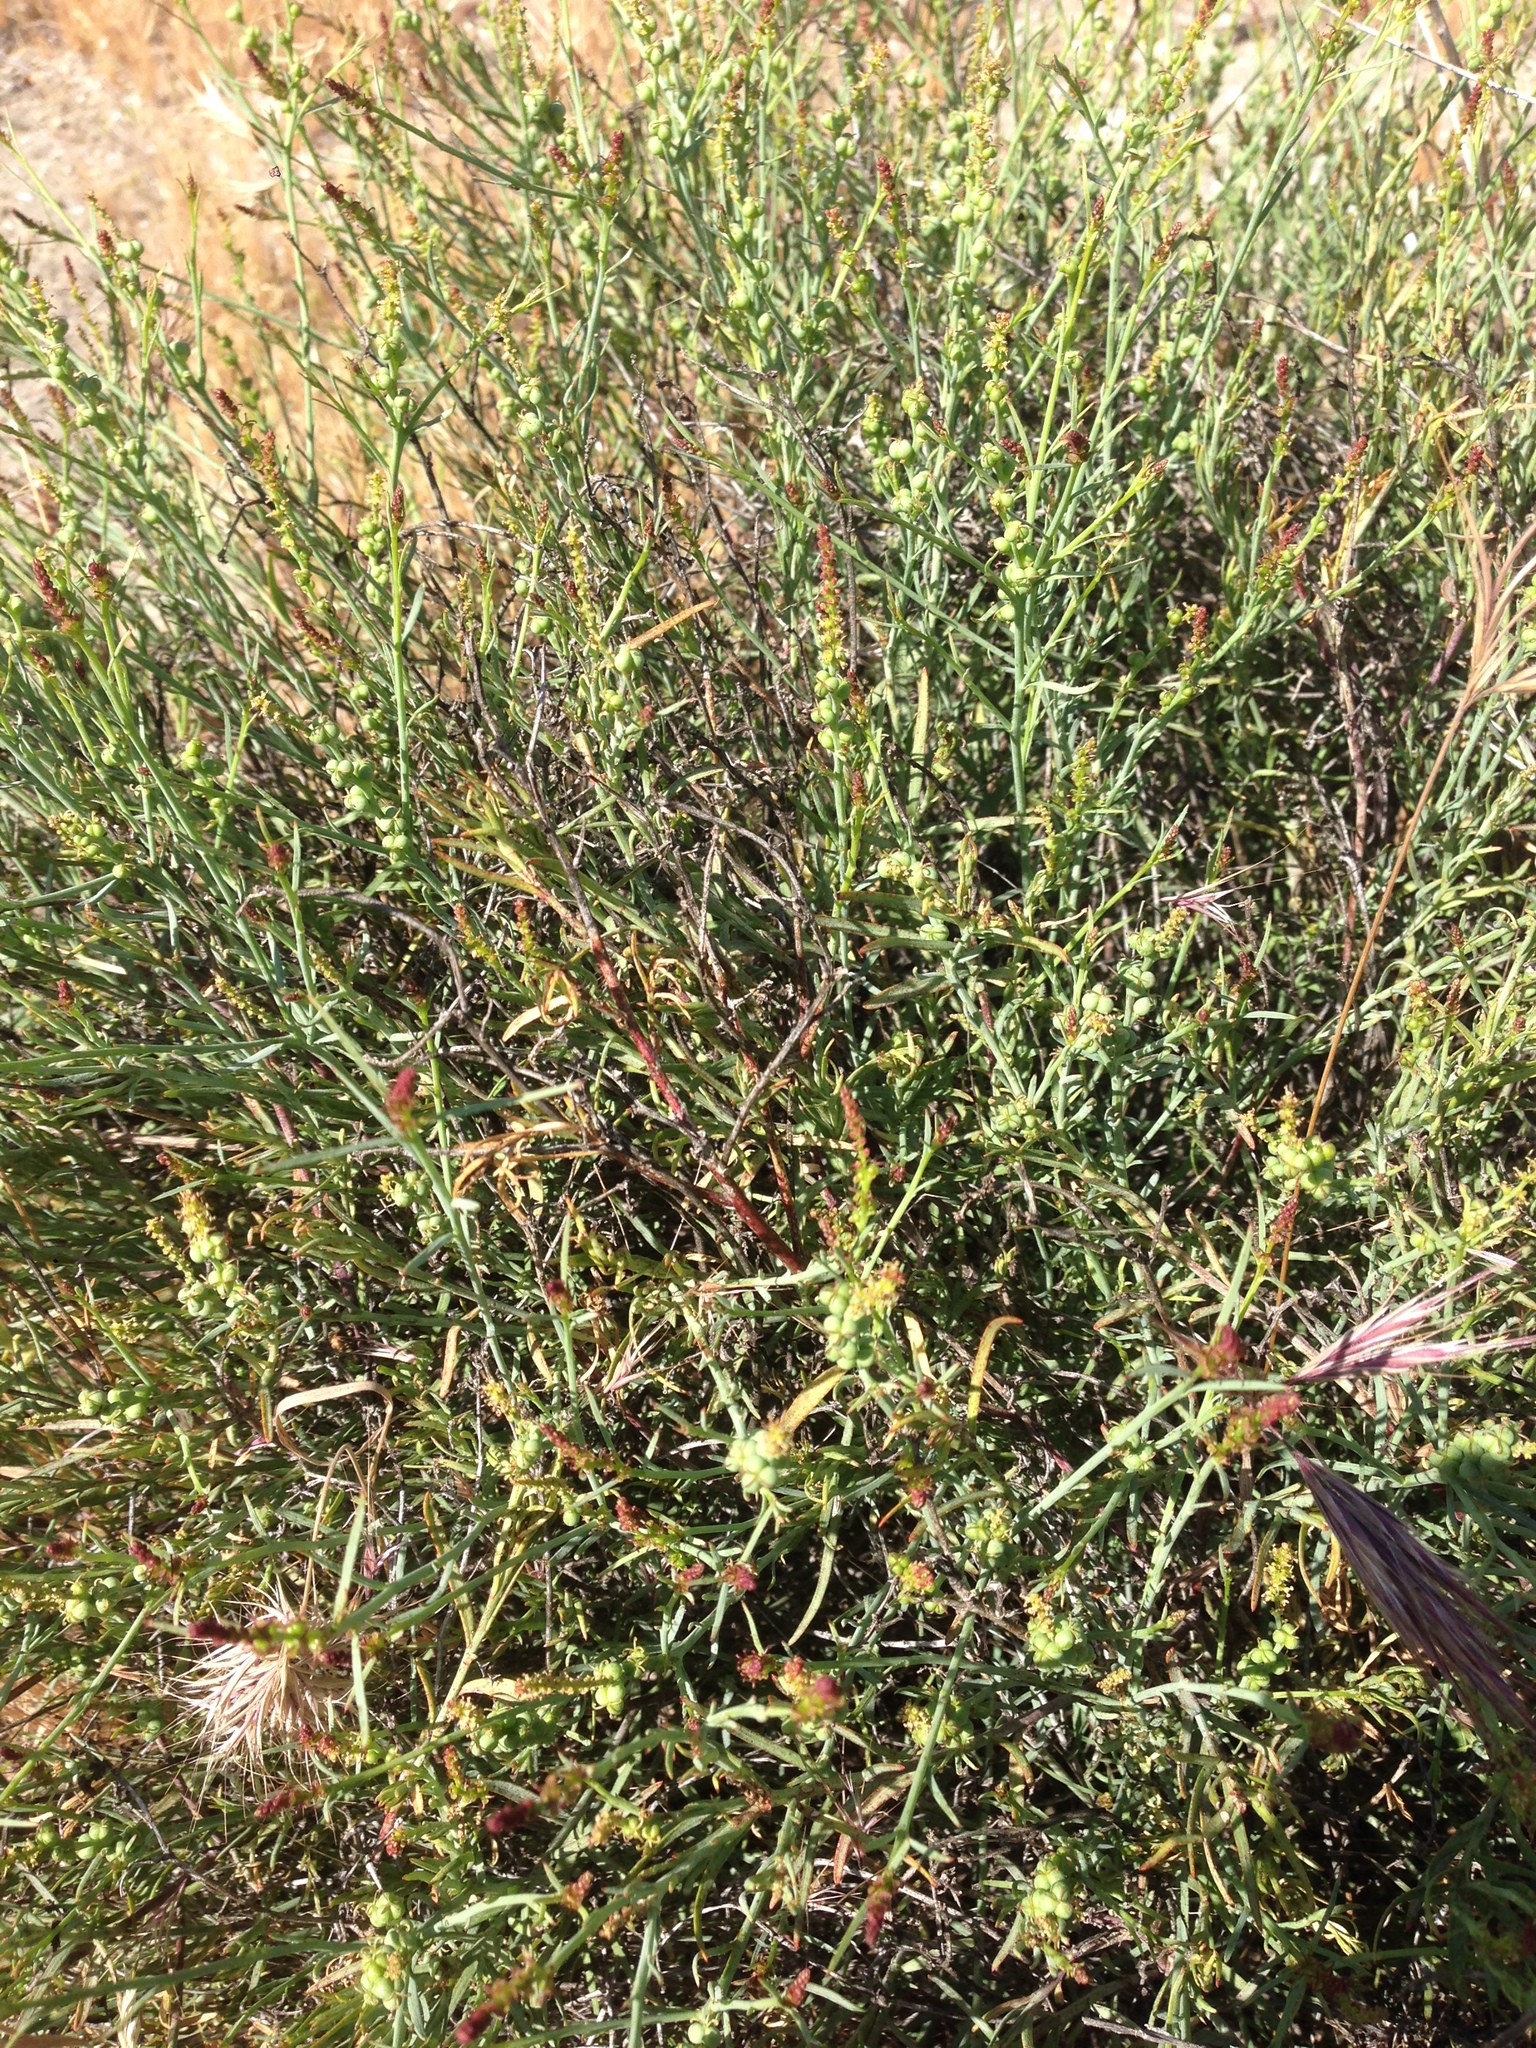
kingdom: Plantae
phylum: Tracheophyta
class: Magnoliopsida
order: Malpighiales
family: Euphorbiaceae
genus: Stillingia
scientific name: Stillingia linearifolia
